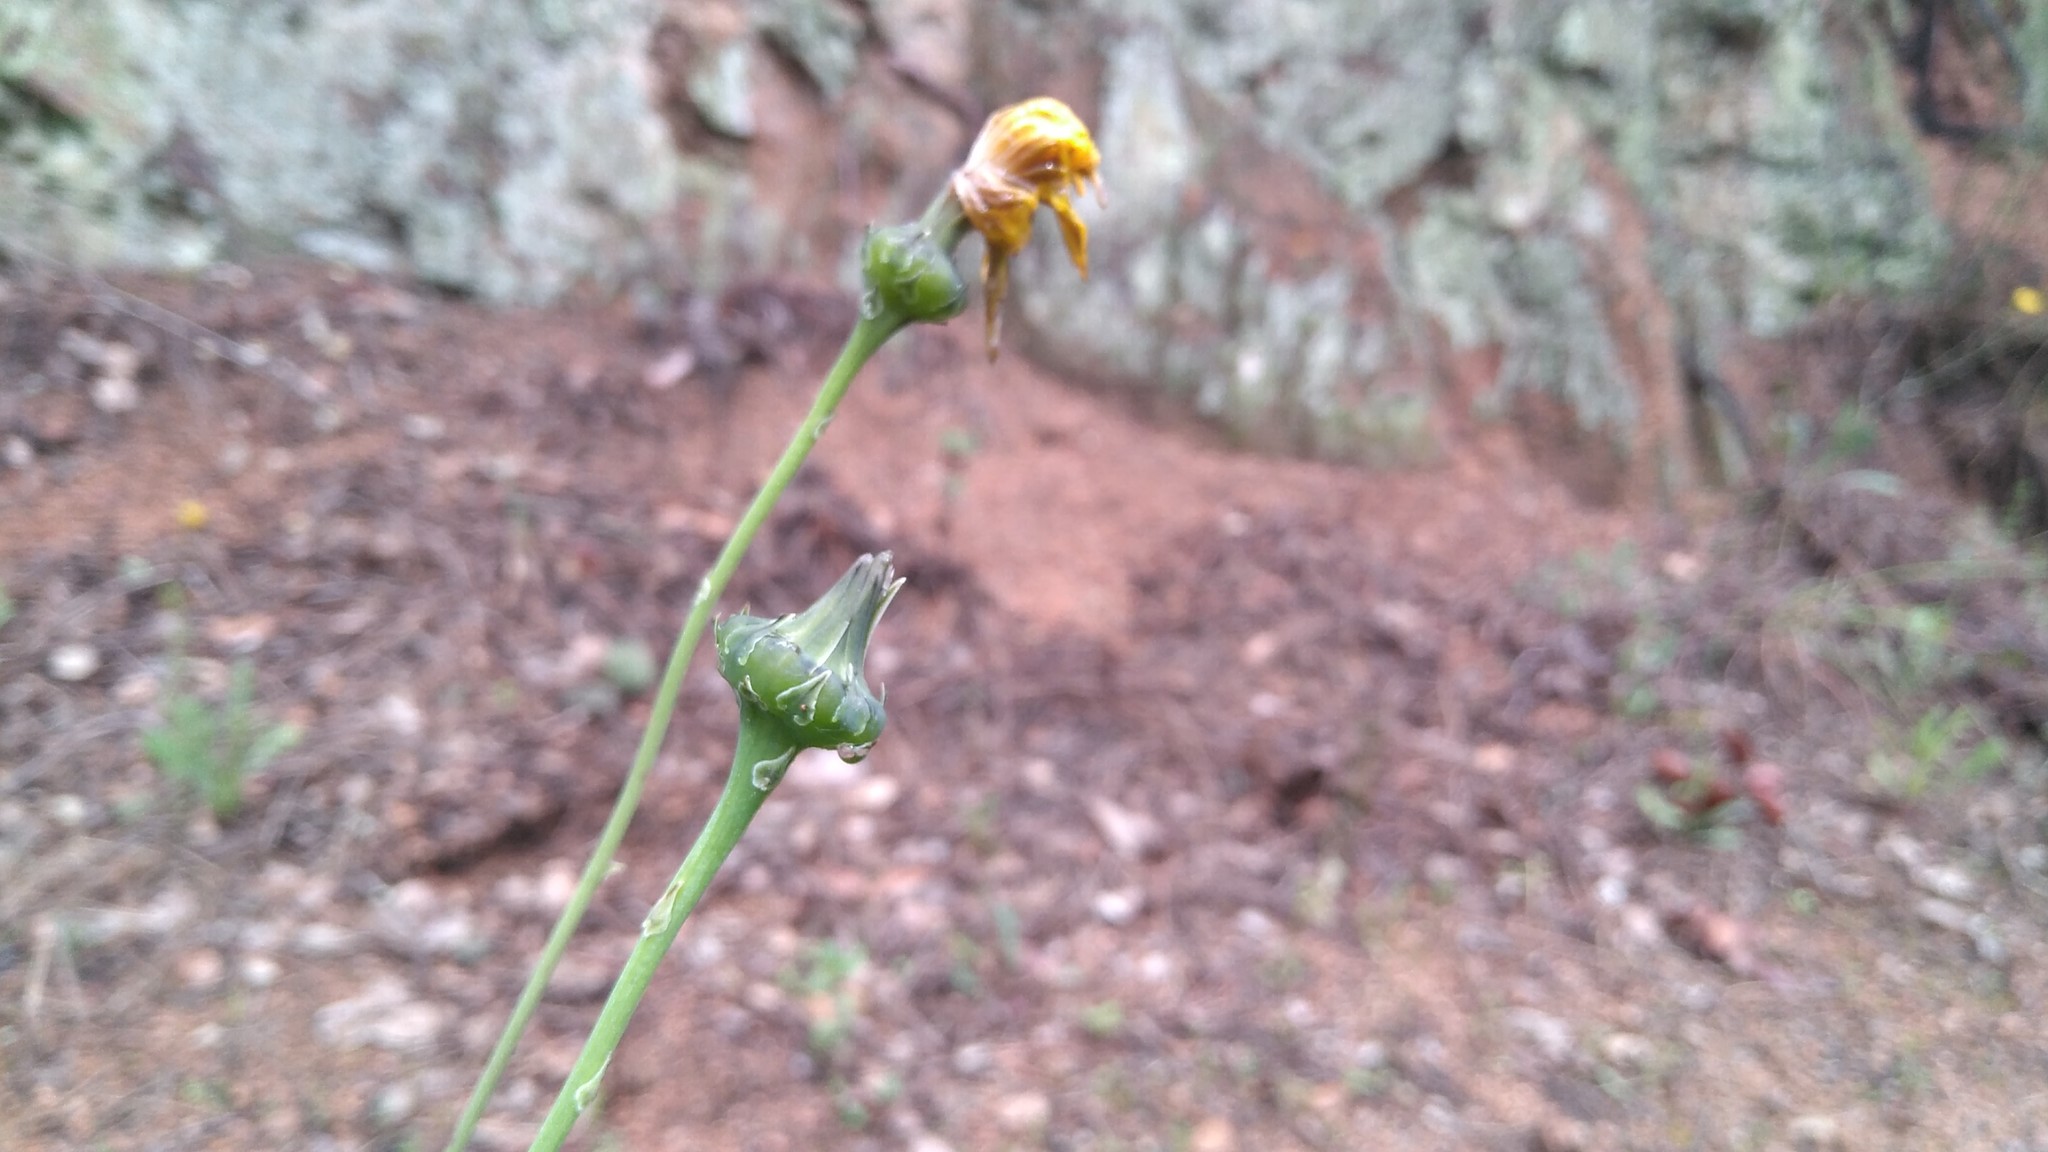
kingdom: Plantae
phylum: Tracheophyta
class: Magnoliopsida
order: Asterales
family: Asteraceae
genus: Reichardia
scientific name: Reichardia picroides
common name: Common brighteyes
